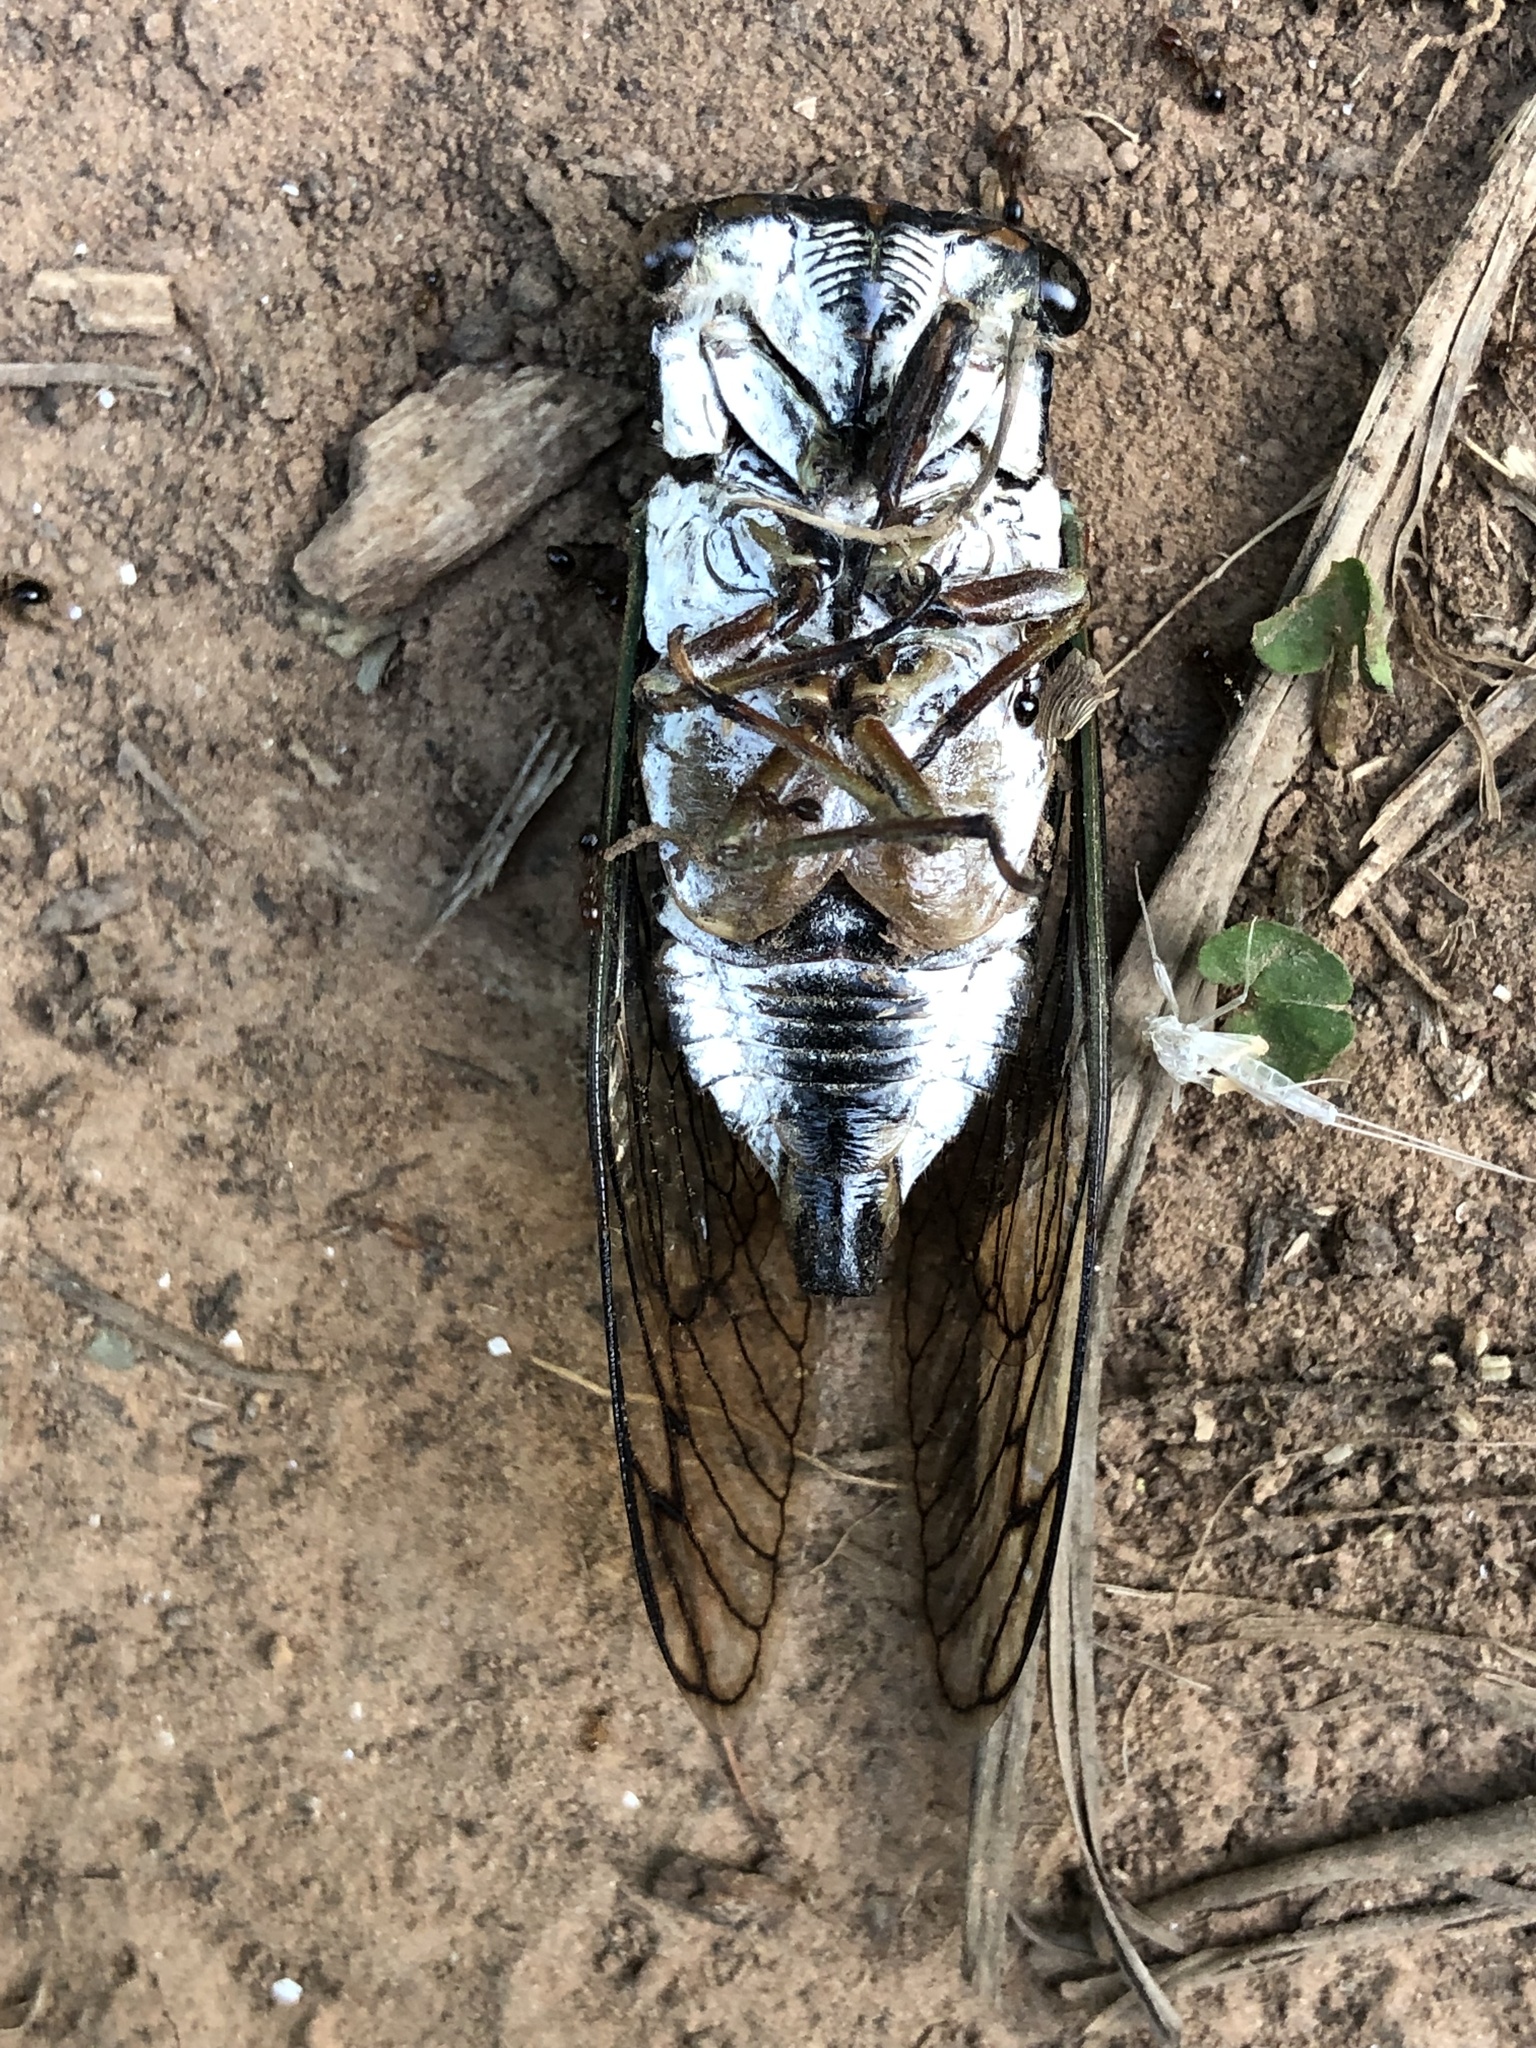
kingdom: Animalia
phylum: Arthropoda
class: Insecta
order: Hemiptera
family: Cicadidae
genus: Neotibicen
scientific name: Neotibicen lyricen
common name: Lyric cicada
